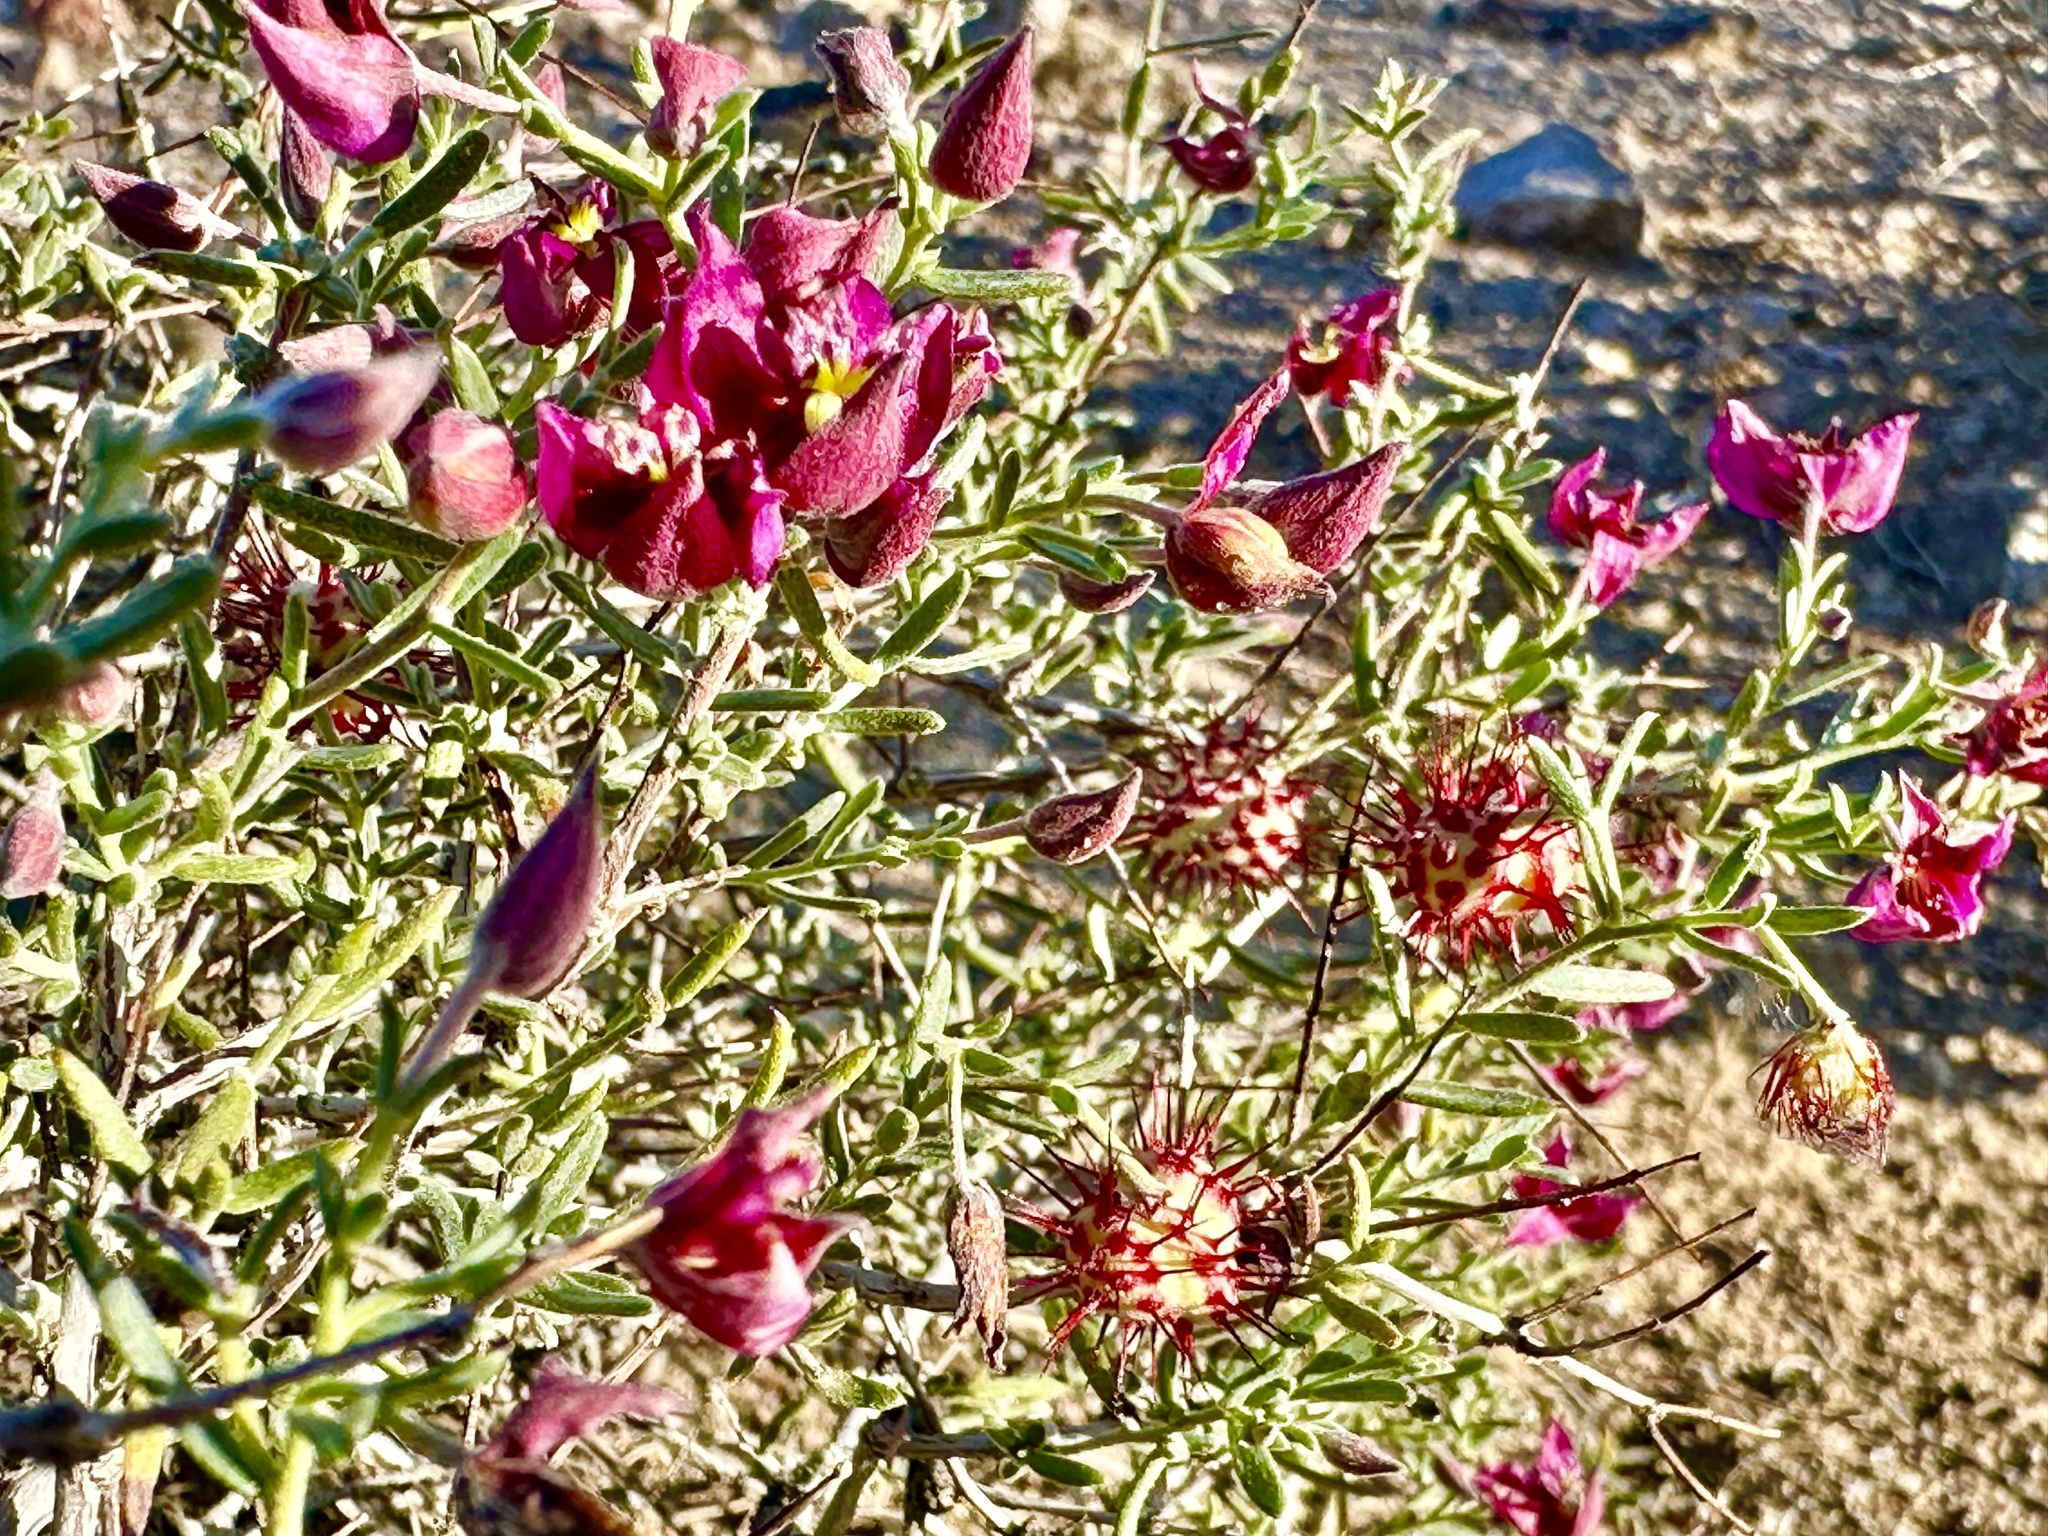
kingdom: Plantae
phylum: Tracheophyta
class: Magnoliopsida
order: Zygophyllales
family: Krameriaceae
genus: Krameria
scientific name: Krameria erecta
